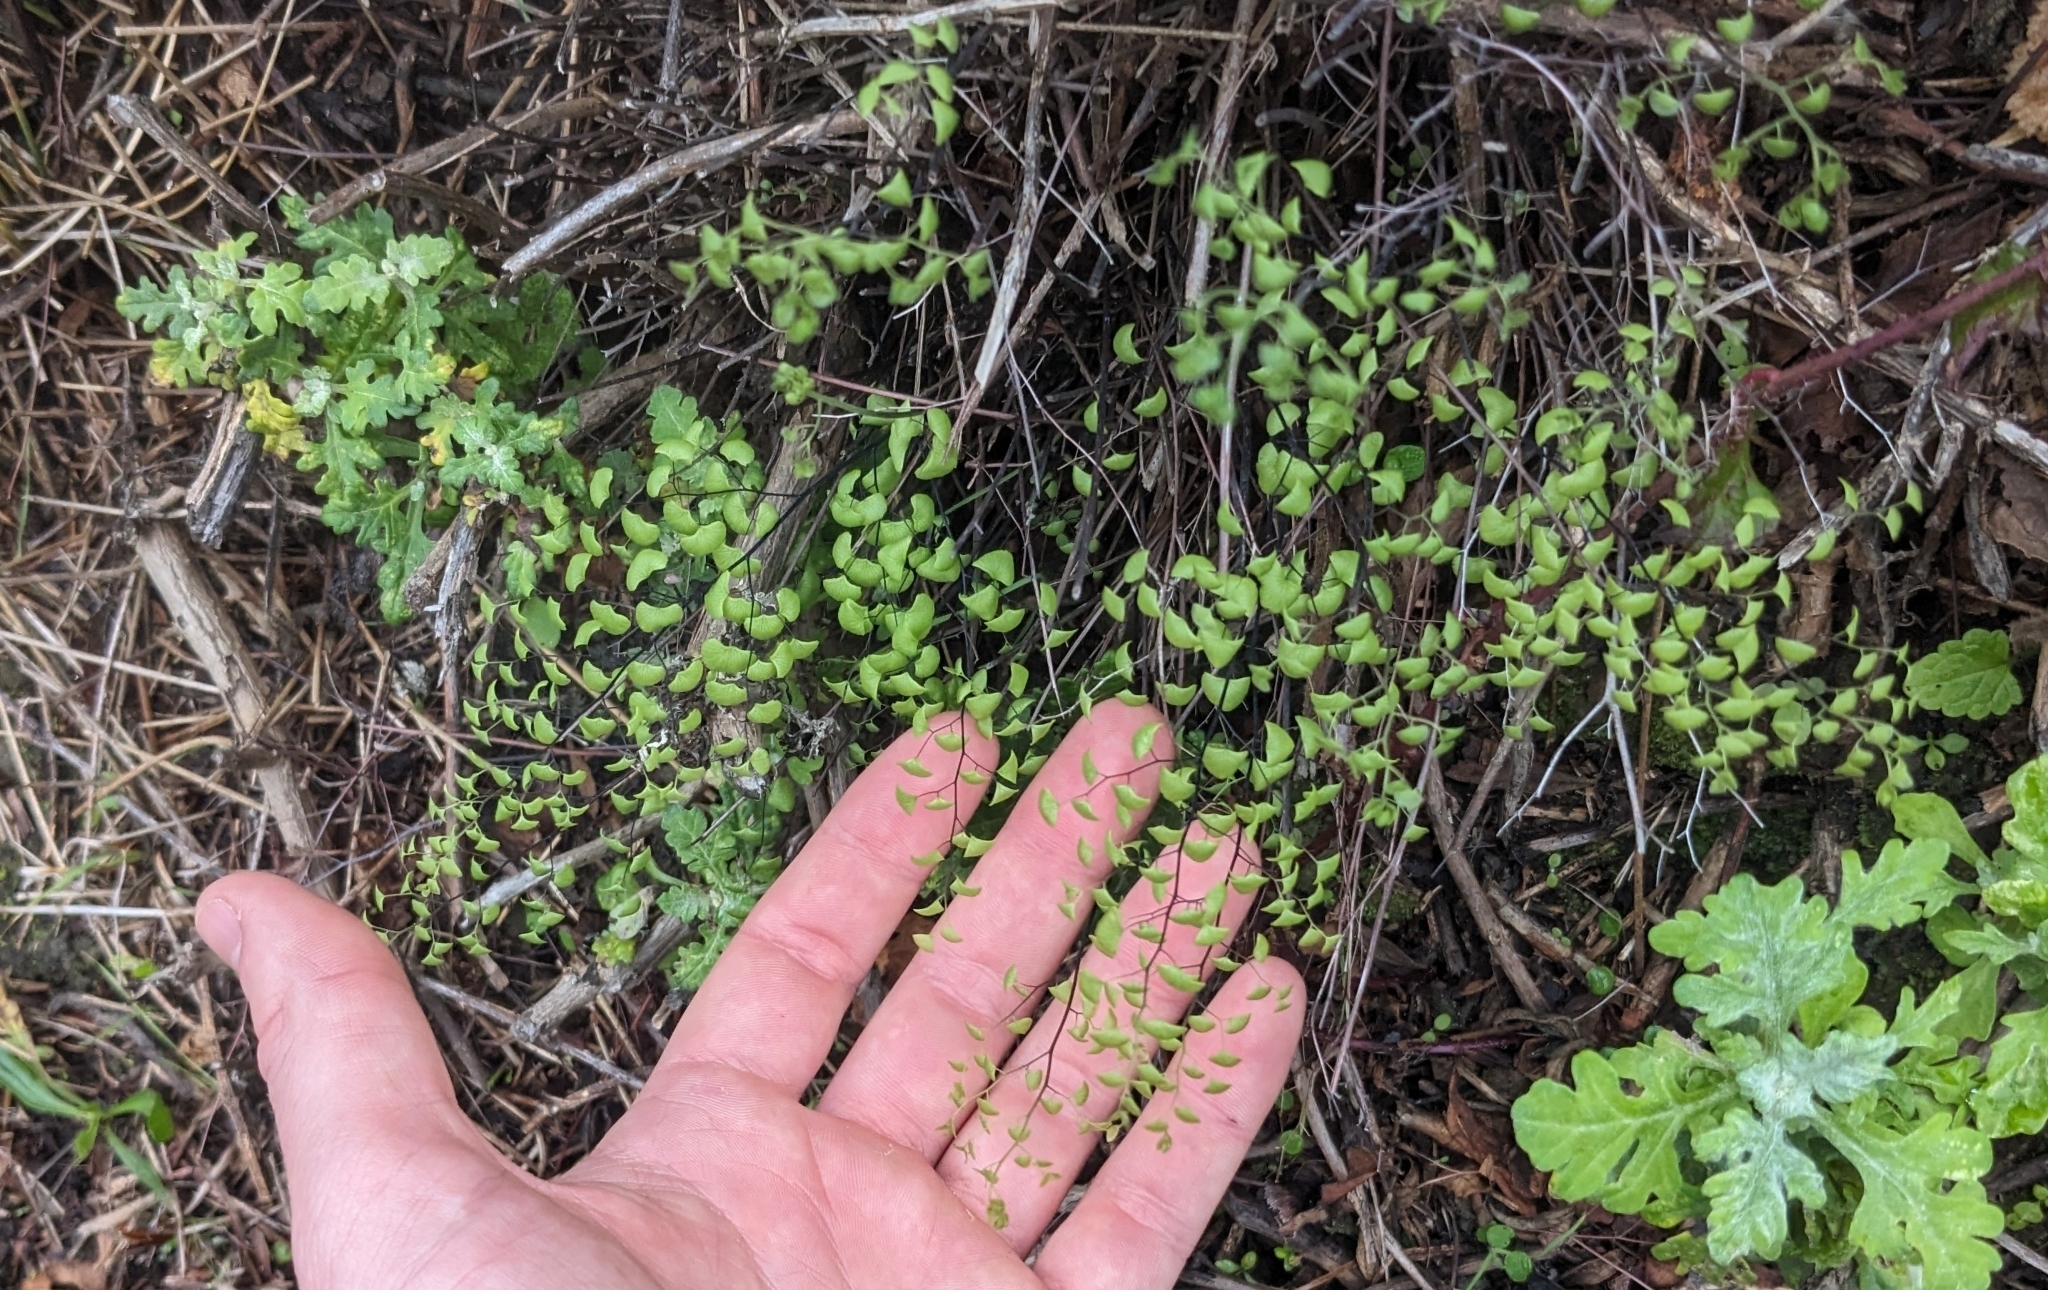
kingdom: Plantae
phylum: Tracheophyta
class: Polypodiopsida
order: Polypodiales
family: Pteridaceae
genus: Adiantum
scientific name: Adiantum jordanii
